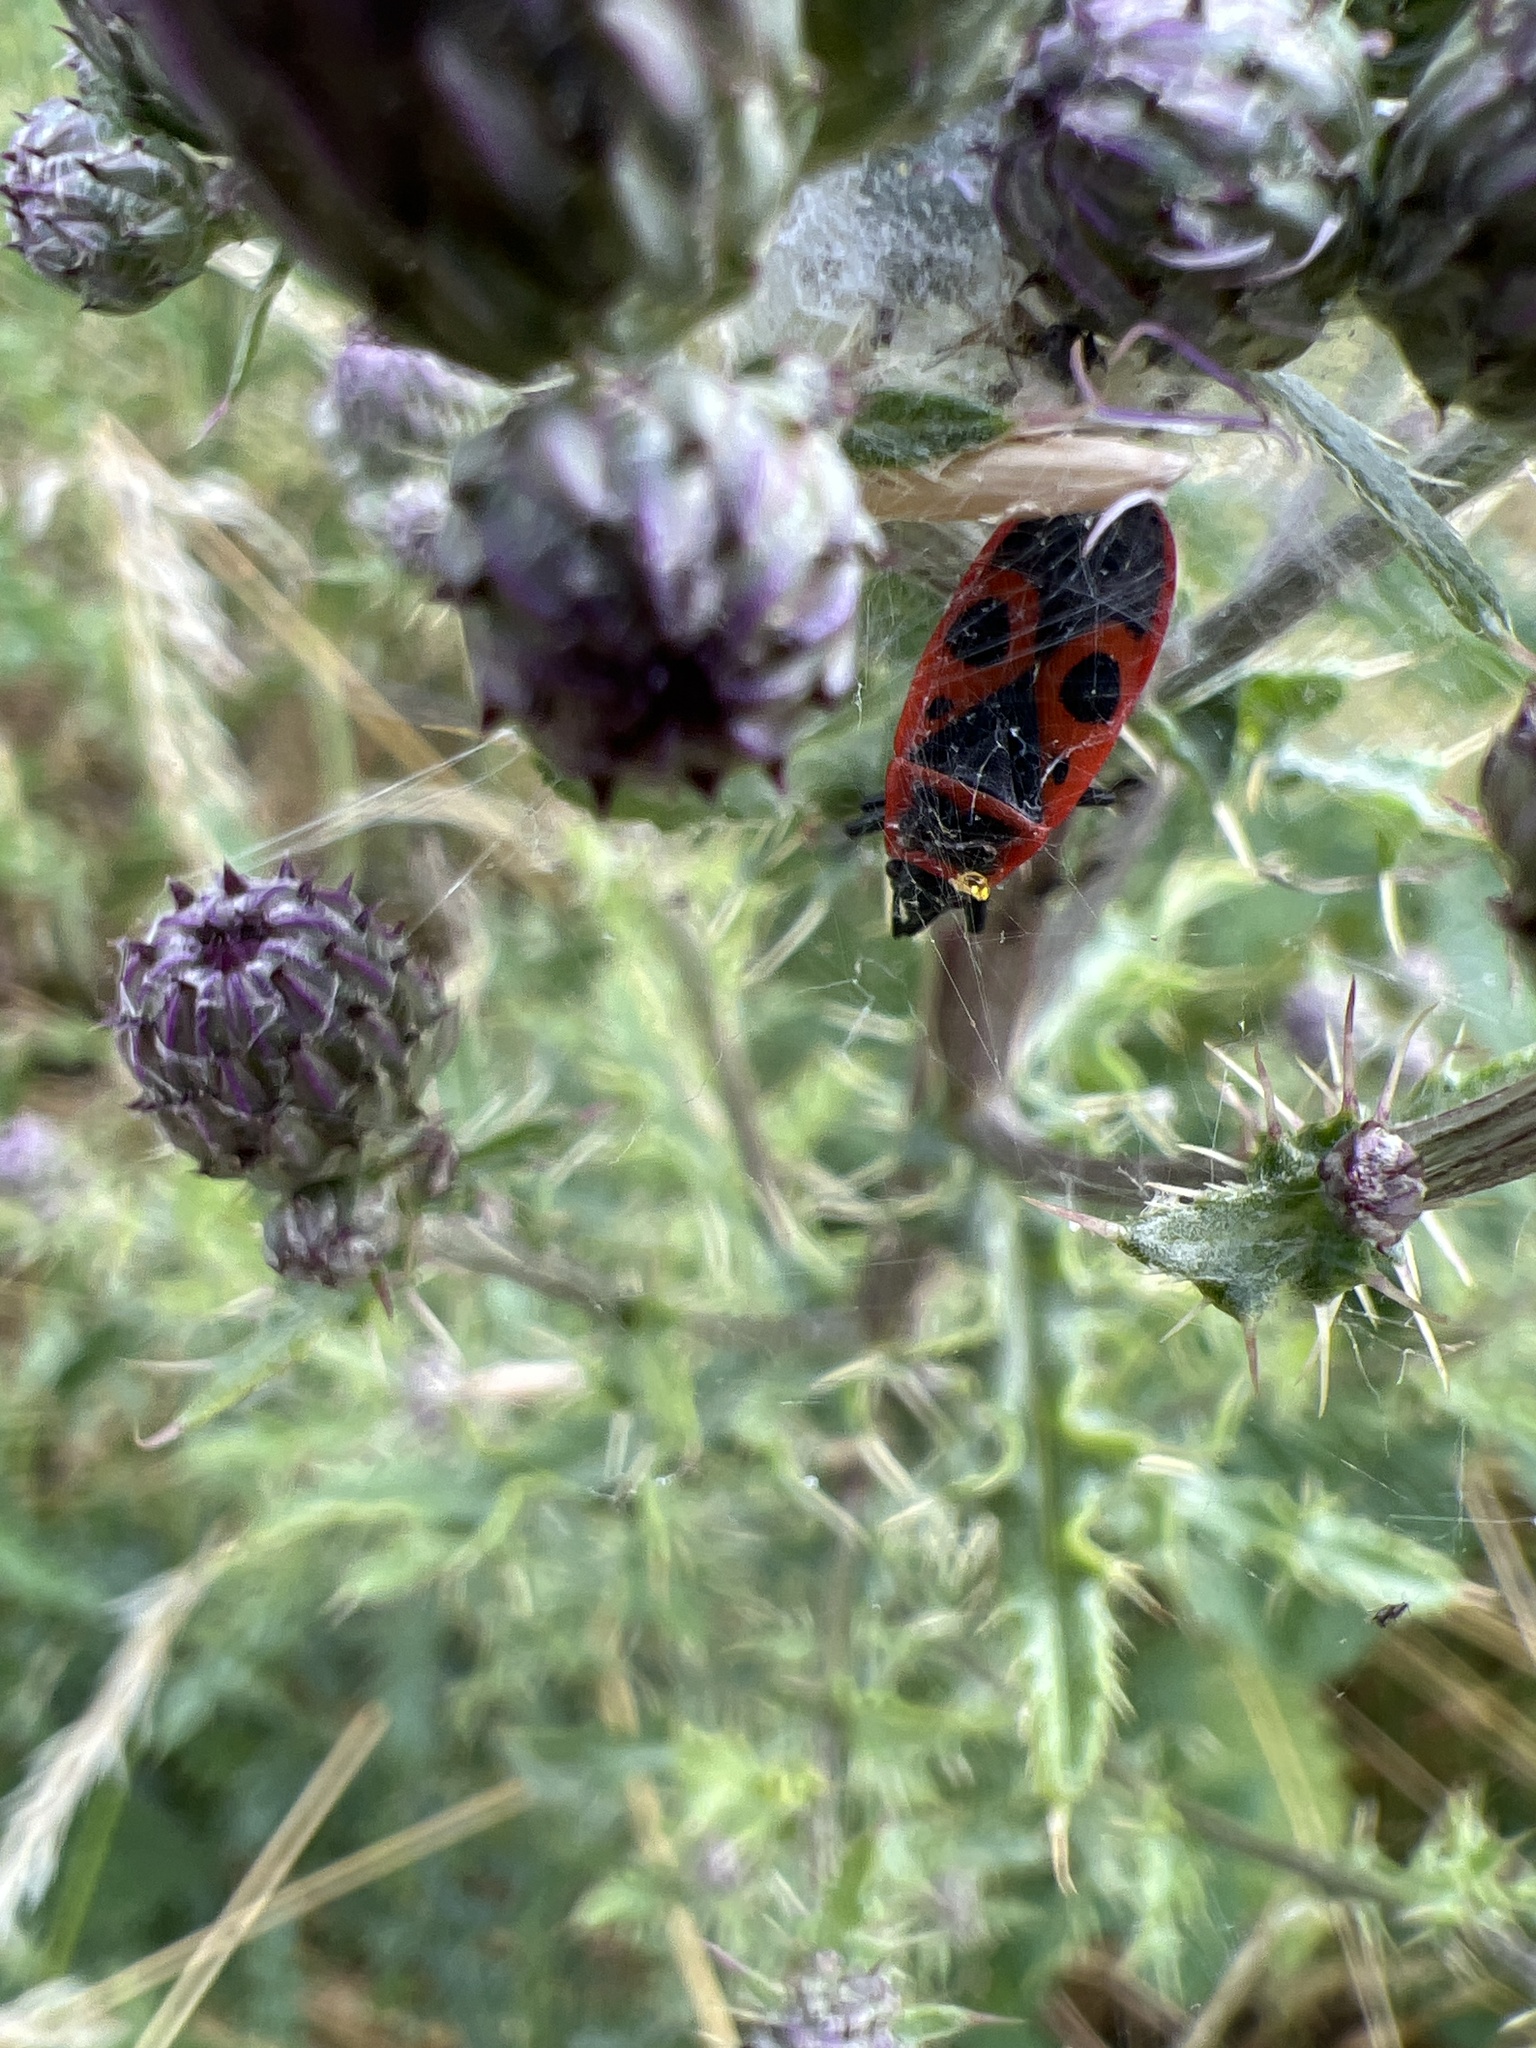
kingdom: Animalia
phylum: Arthropoda
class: Insecta
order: Hemiptera
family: Pyrrhocoridae
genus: Pyrrhocoris
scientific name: Pyrrhocoris apterus
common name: Firebug
